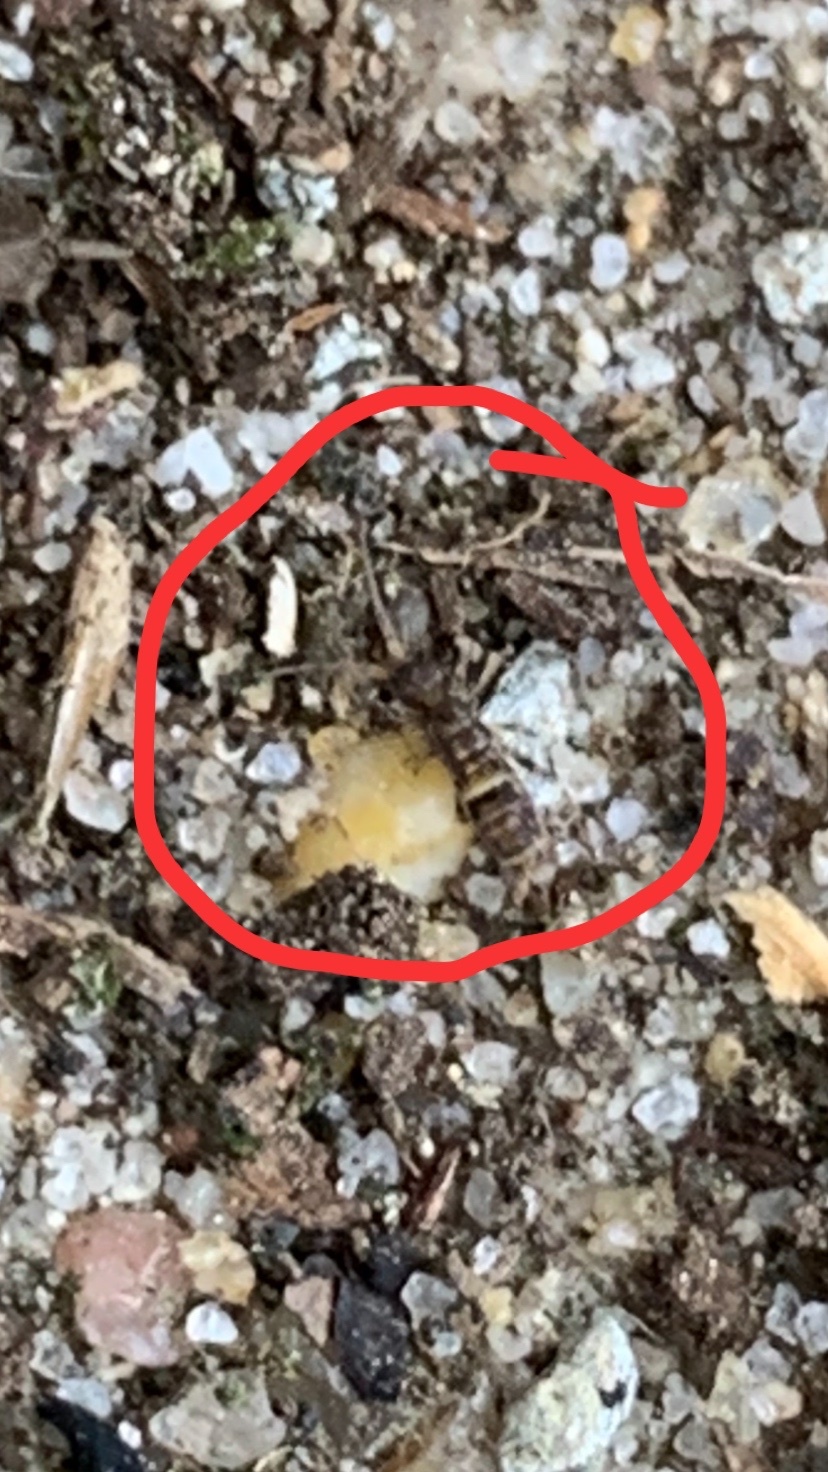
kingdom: Animalia
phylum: Arthropoda
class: Collembola
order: Entomobryomorpha
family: Orchesellidae
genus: Orchesella
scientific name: Orchesella cincta
